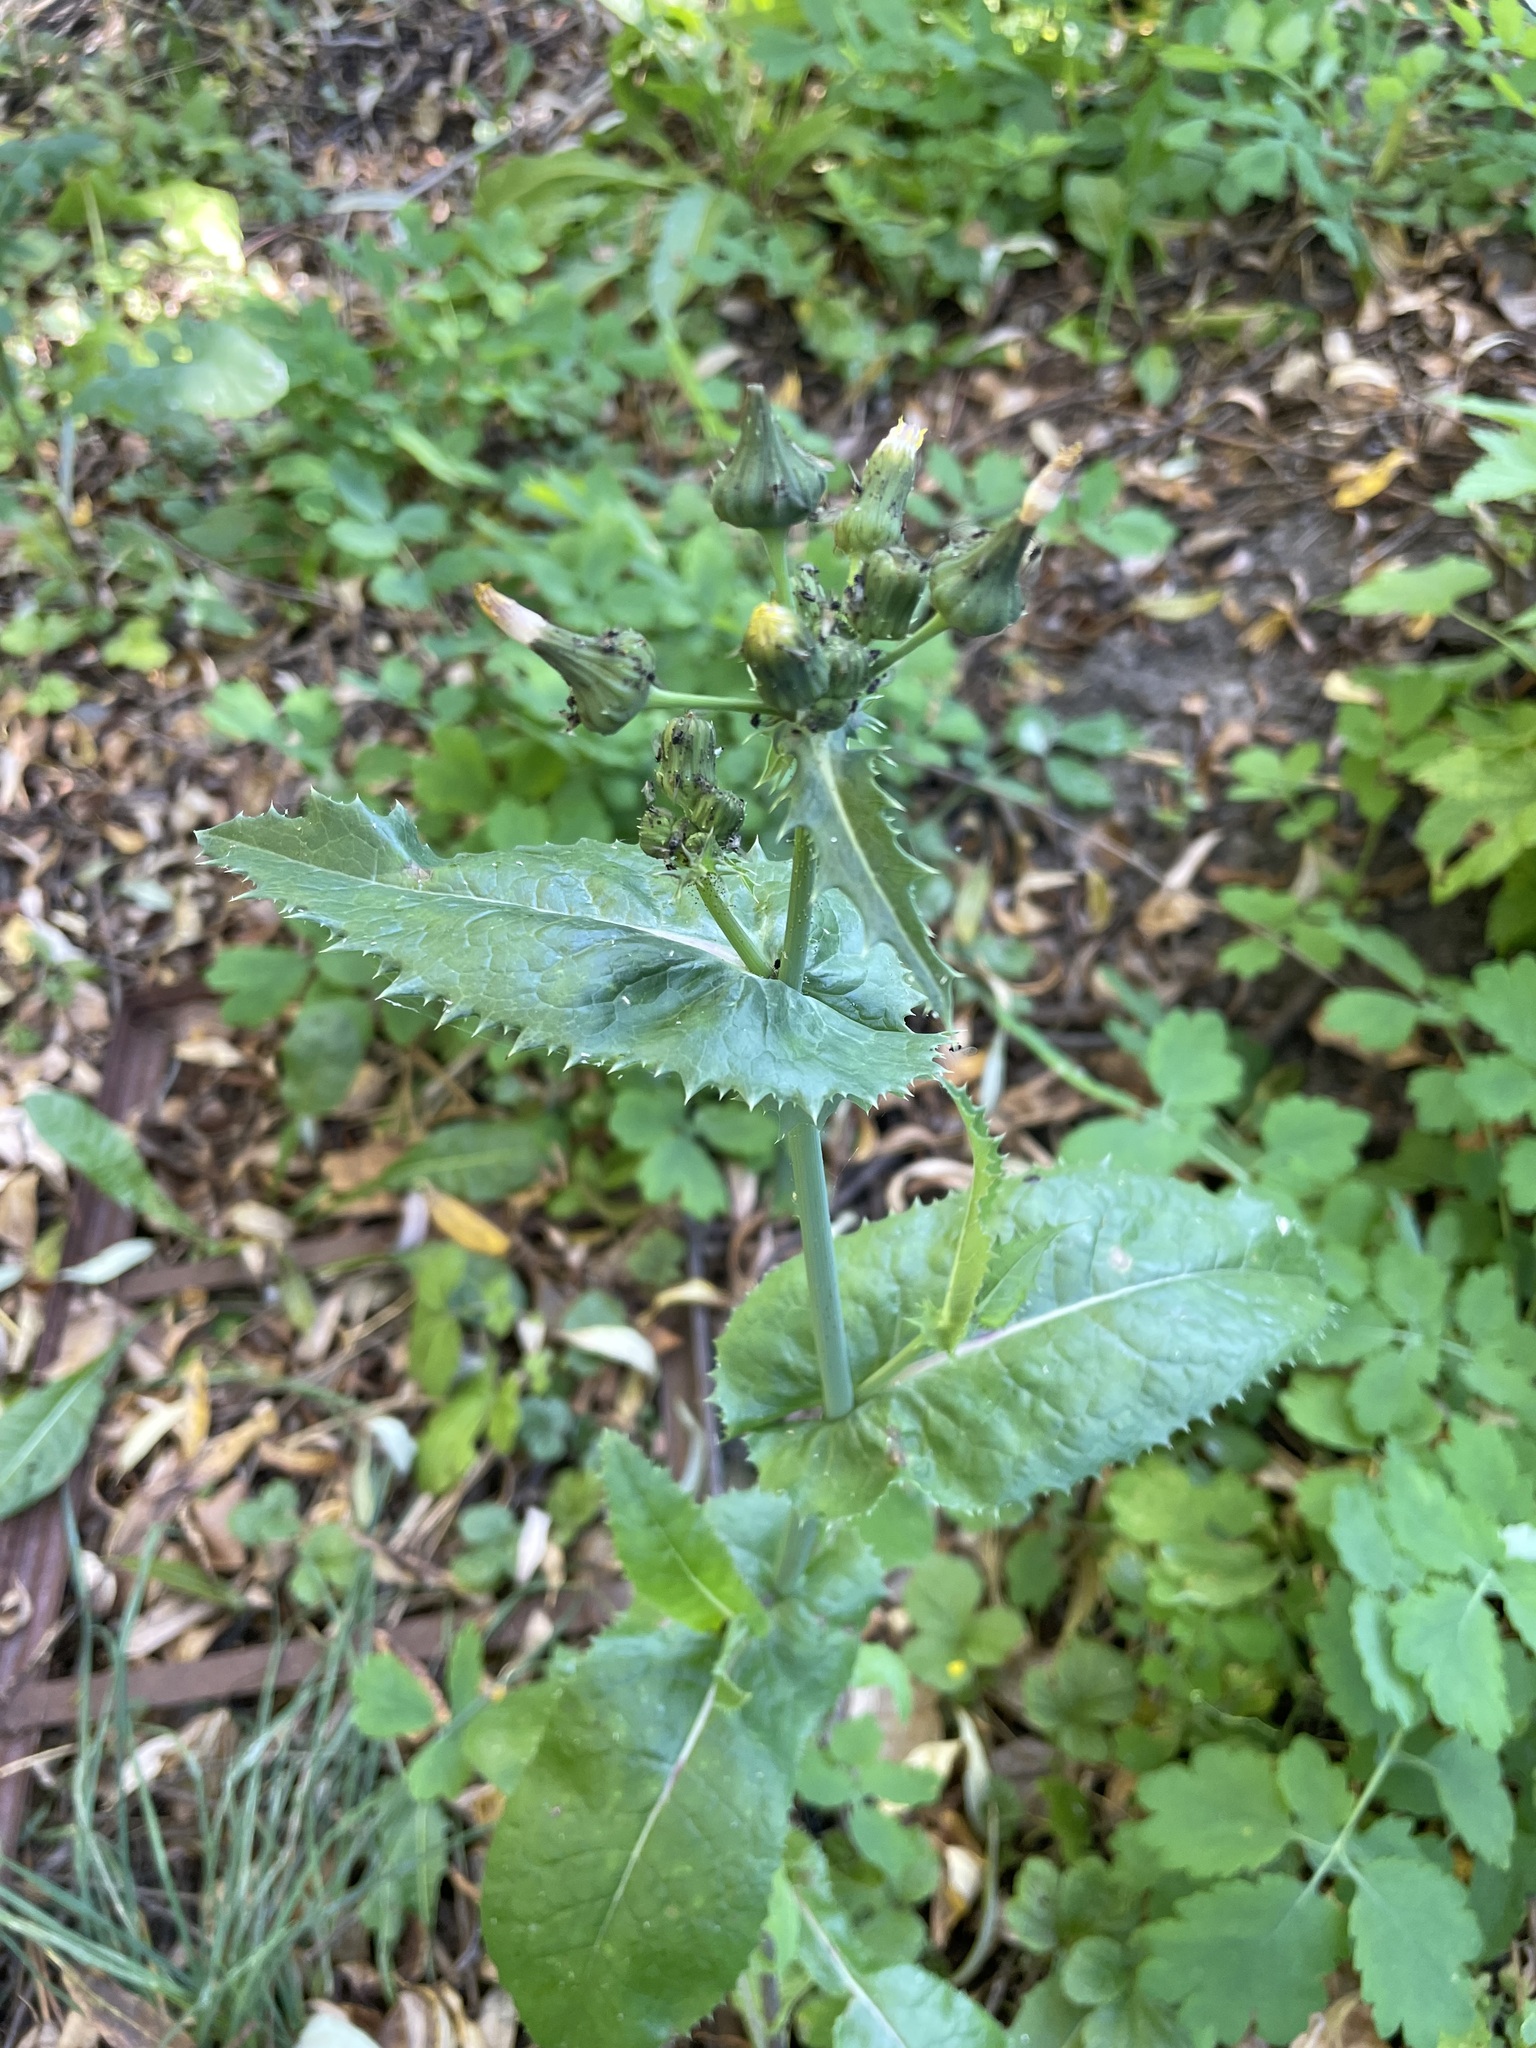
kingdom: Plantae
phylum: Tracheophyta
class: Magnoliopsida
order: Asterales
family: Asteraceae
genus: Sonchus
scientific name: Sonchus asper
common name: Prickly sow-thistle
